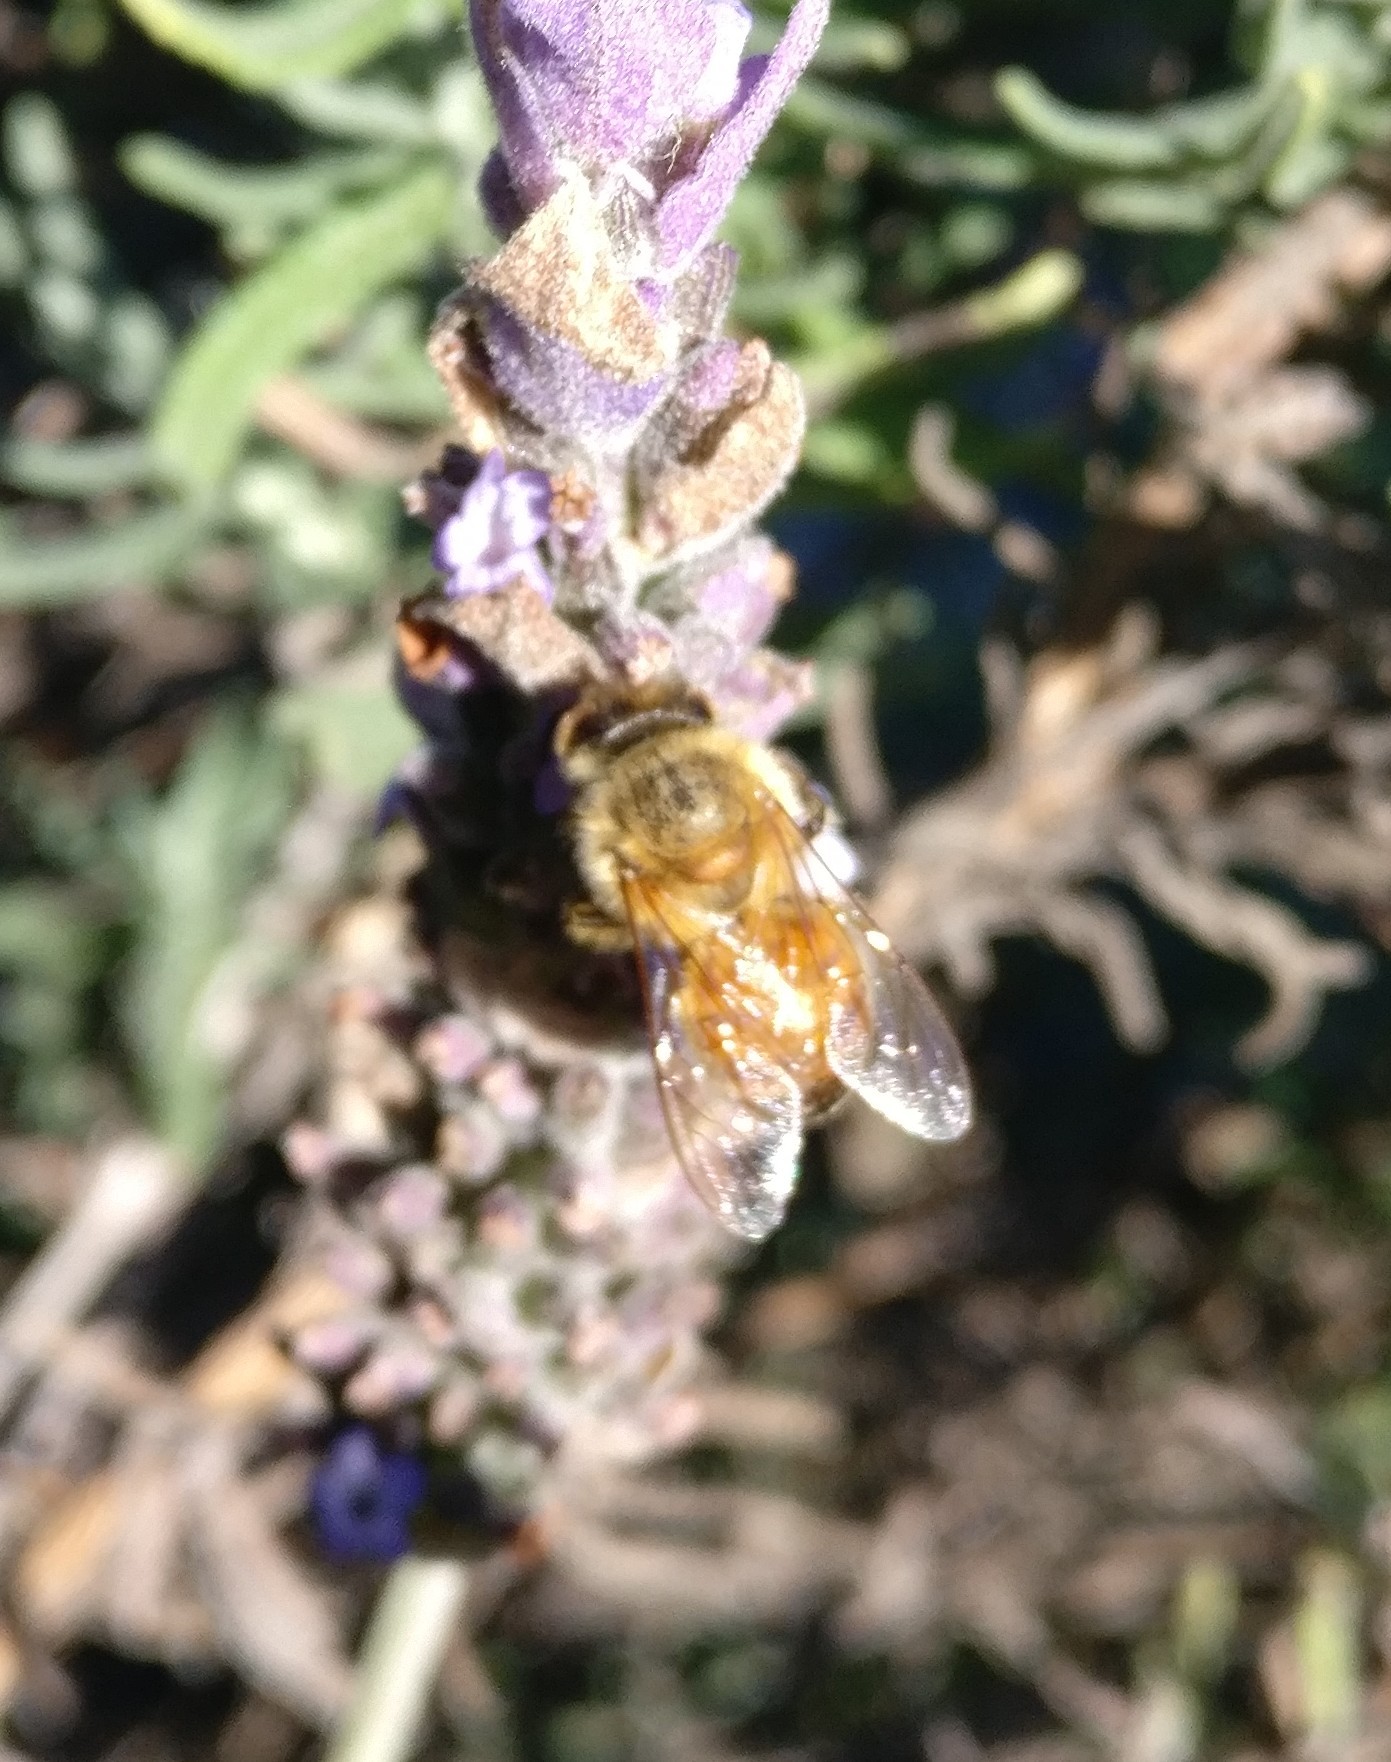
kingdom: Animalia
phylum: Arthropoda
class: Insecta
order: Hymenoptera
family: Apidae
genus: Apis
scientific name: Apis mellifera
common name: Honey bee
